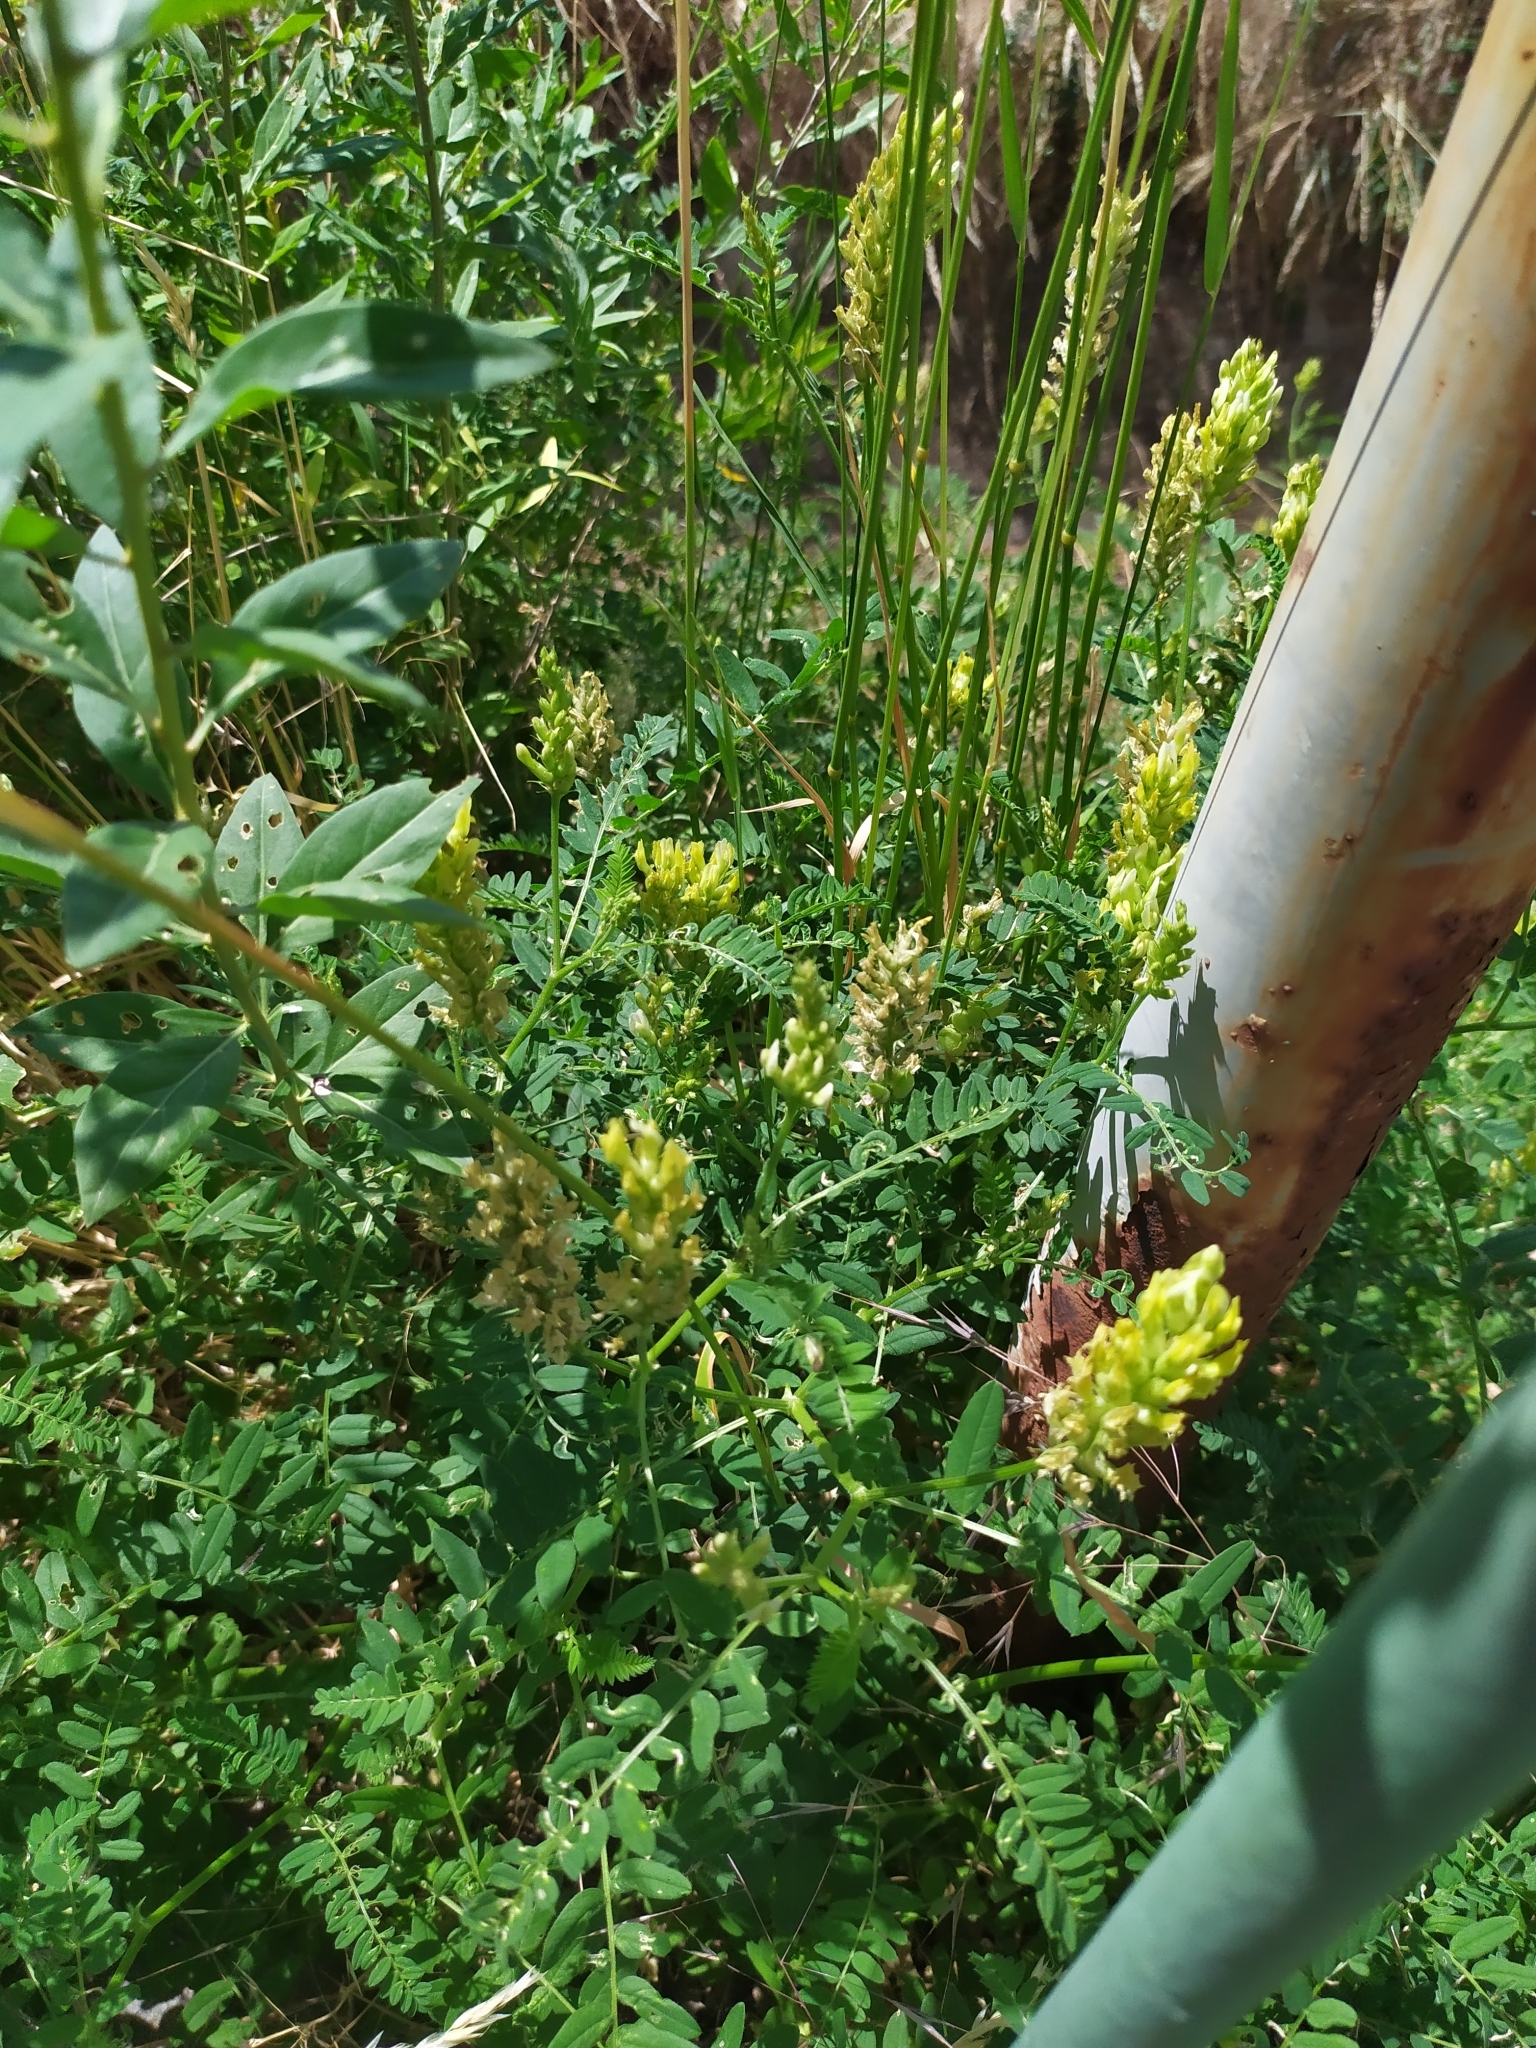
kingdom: Plantae
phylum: Tracheophyta
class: Magnoliopsida
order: Fabales
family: Fabaceae
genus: Astragalus
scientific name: Astragalus cicer
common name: Chick-pea milk-vetch
